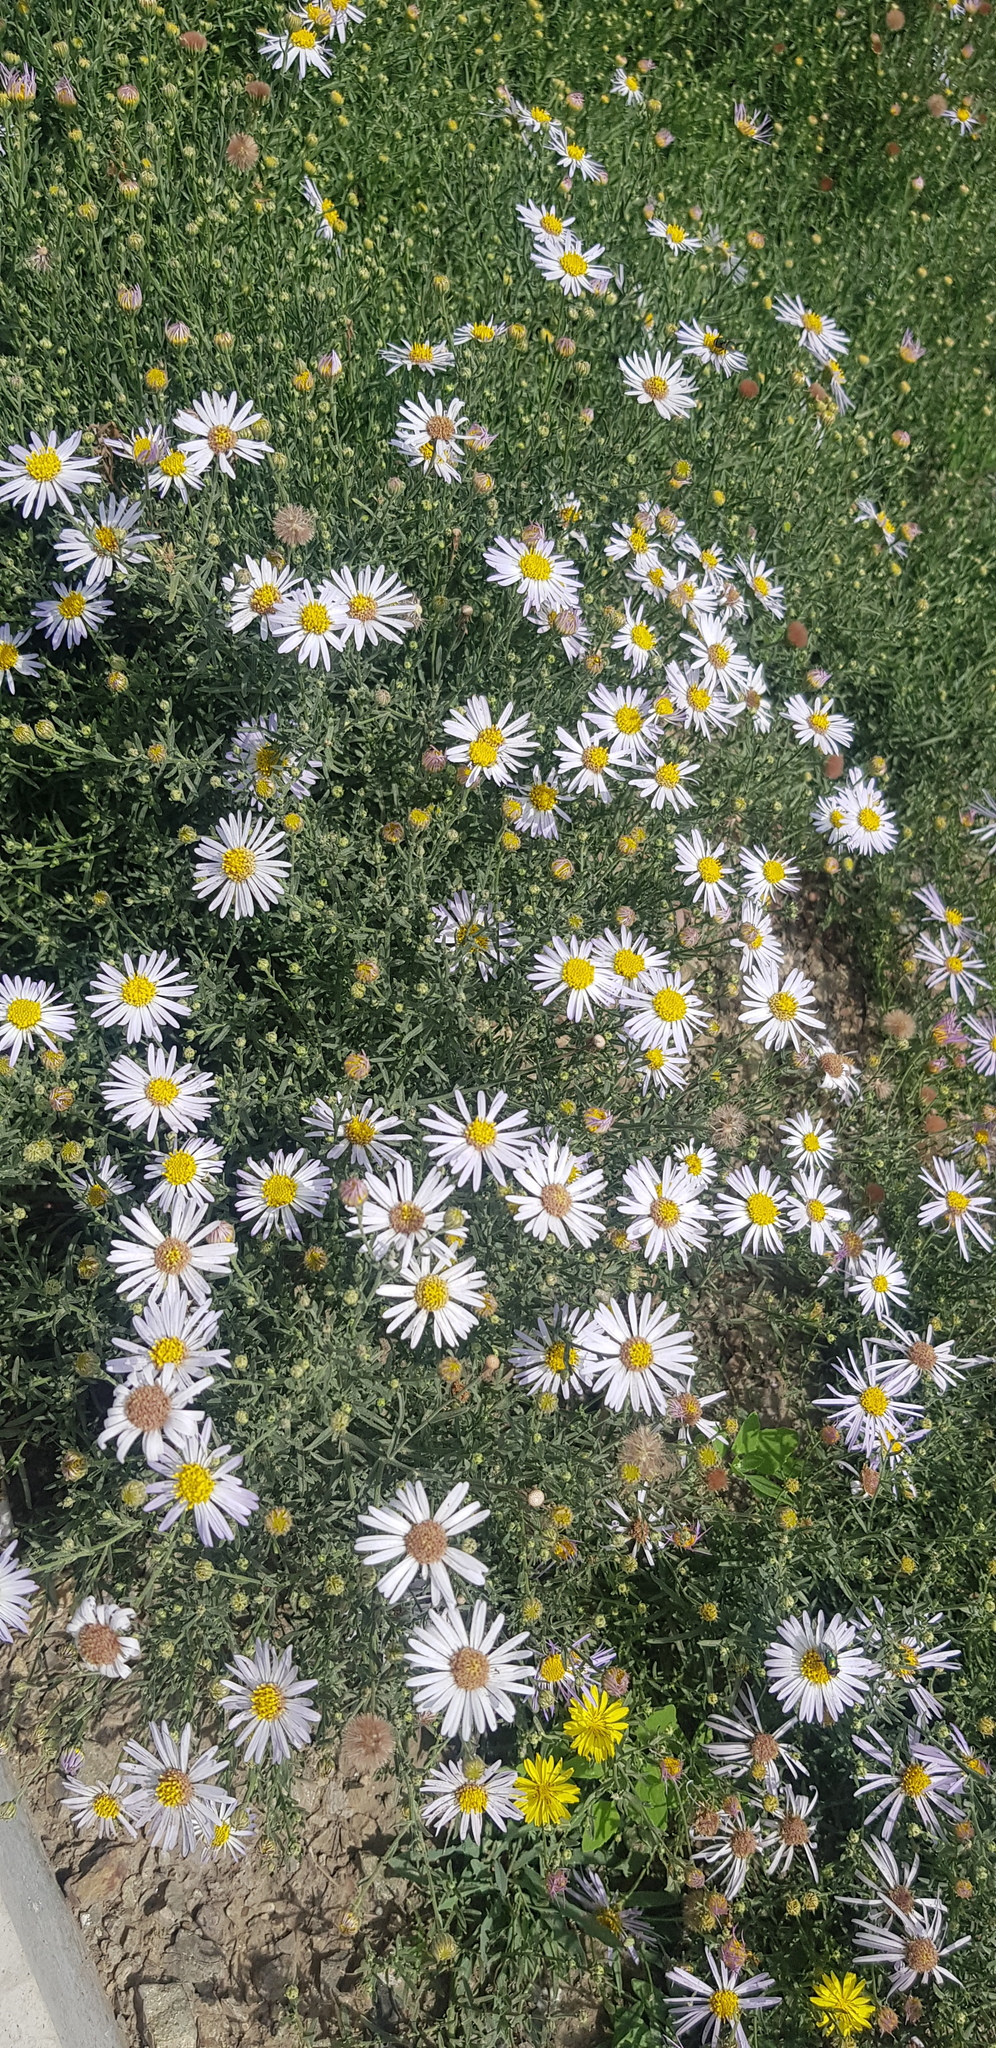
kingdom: Plantae
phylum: Tracheophyta
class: Magnoliopsida
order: Asterales
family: Asteraceae
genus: Heteropappus
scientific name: Heteropappus altaicus
